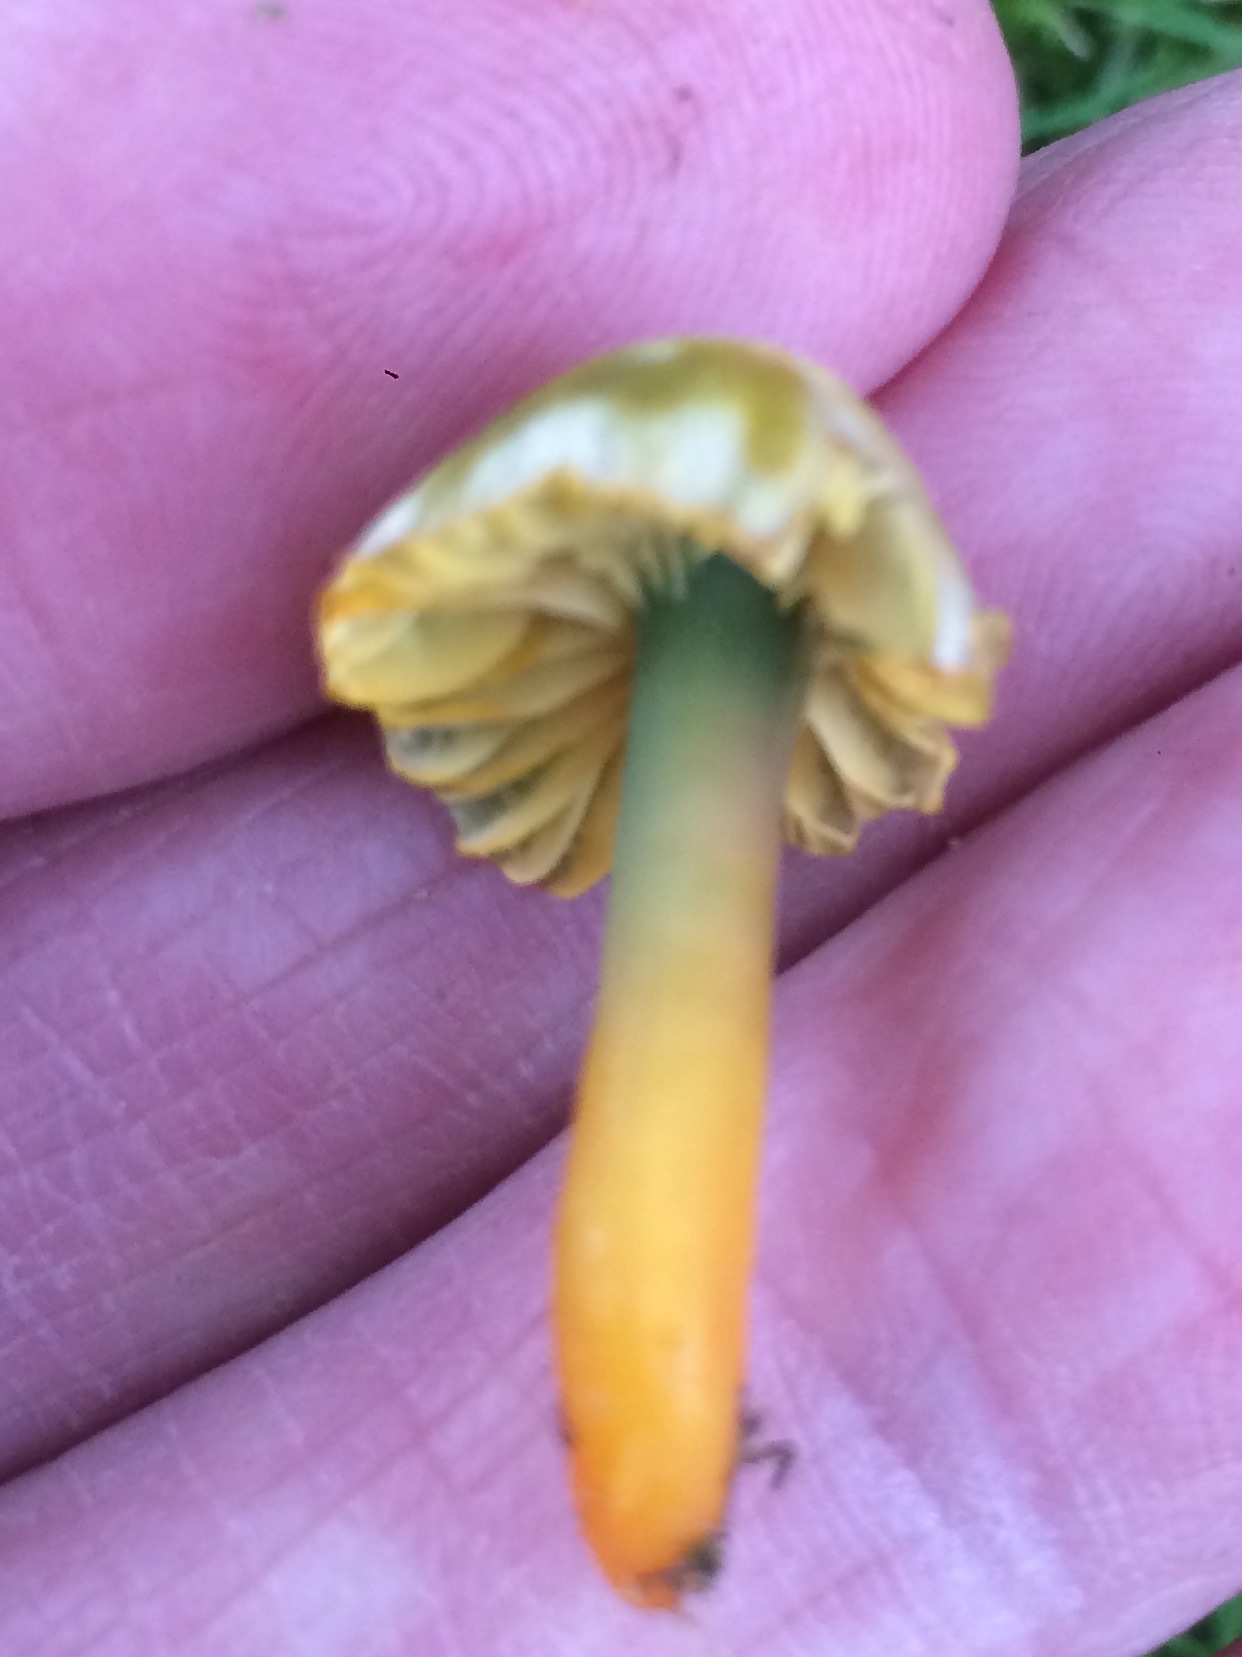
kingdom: Fungi
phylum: Basidiomycota
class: Agaricomycetes
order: Agaricales
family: Hygrophoraceae
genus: Gliophorus
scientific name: Gliophorus psittacinus
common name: Parrot wax-cap
